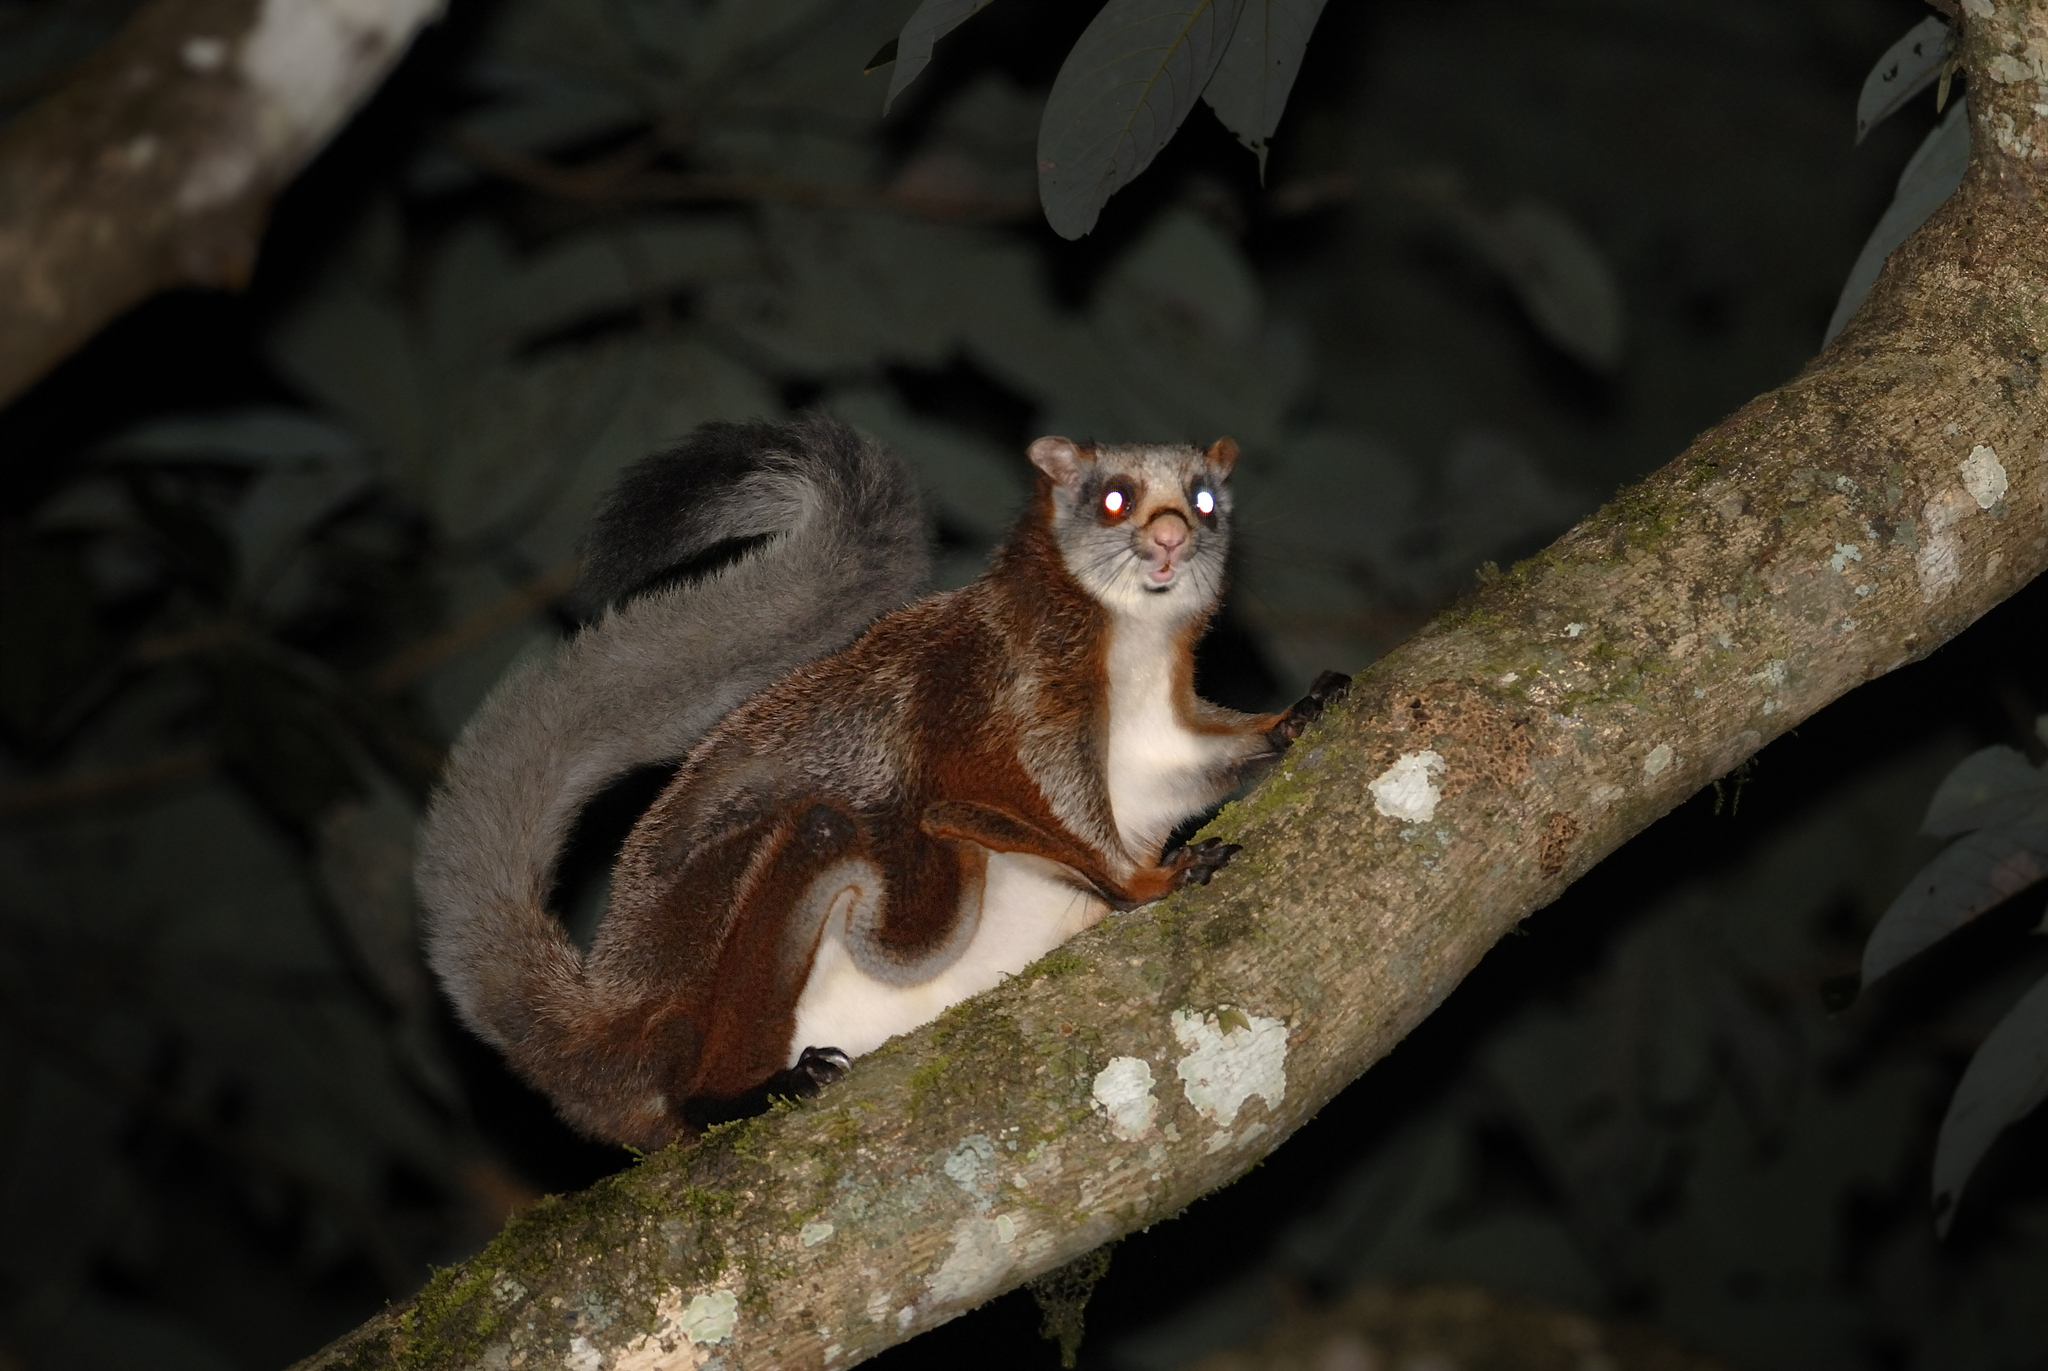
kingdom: Animalia
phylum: Chordata
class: Mammalia
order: Rodentia
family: Sciuridae
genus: Petaurista
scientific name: Petaurista petaurista
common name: Red giant flying squirrel
